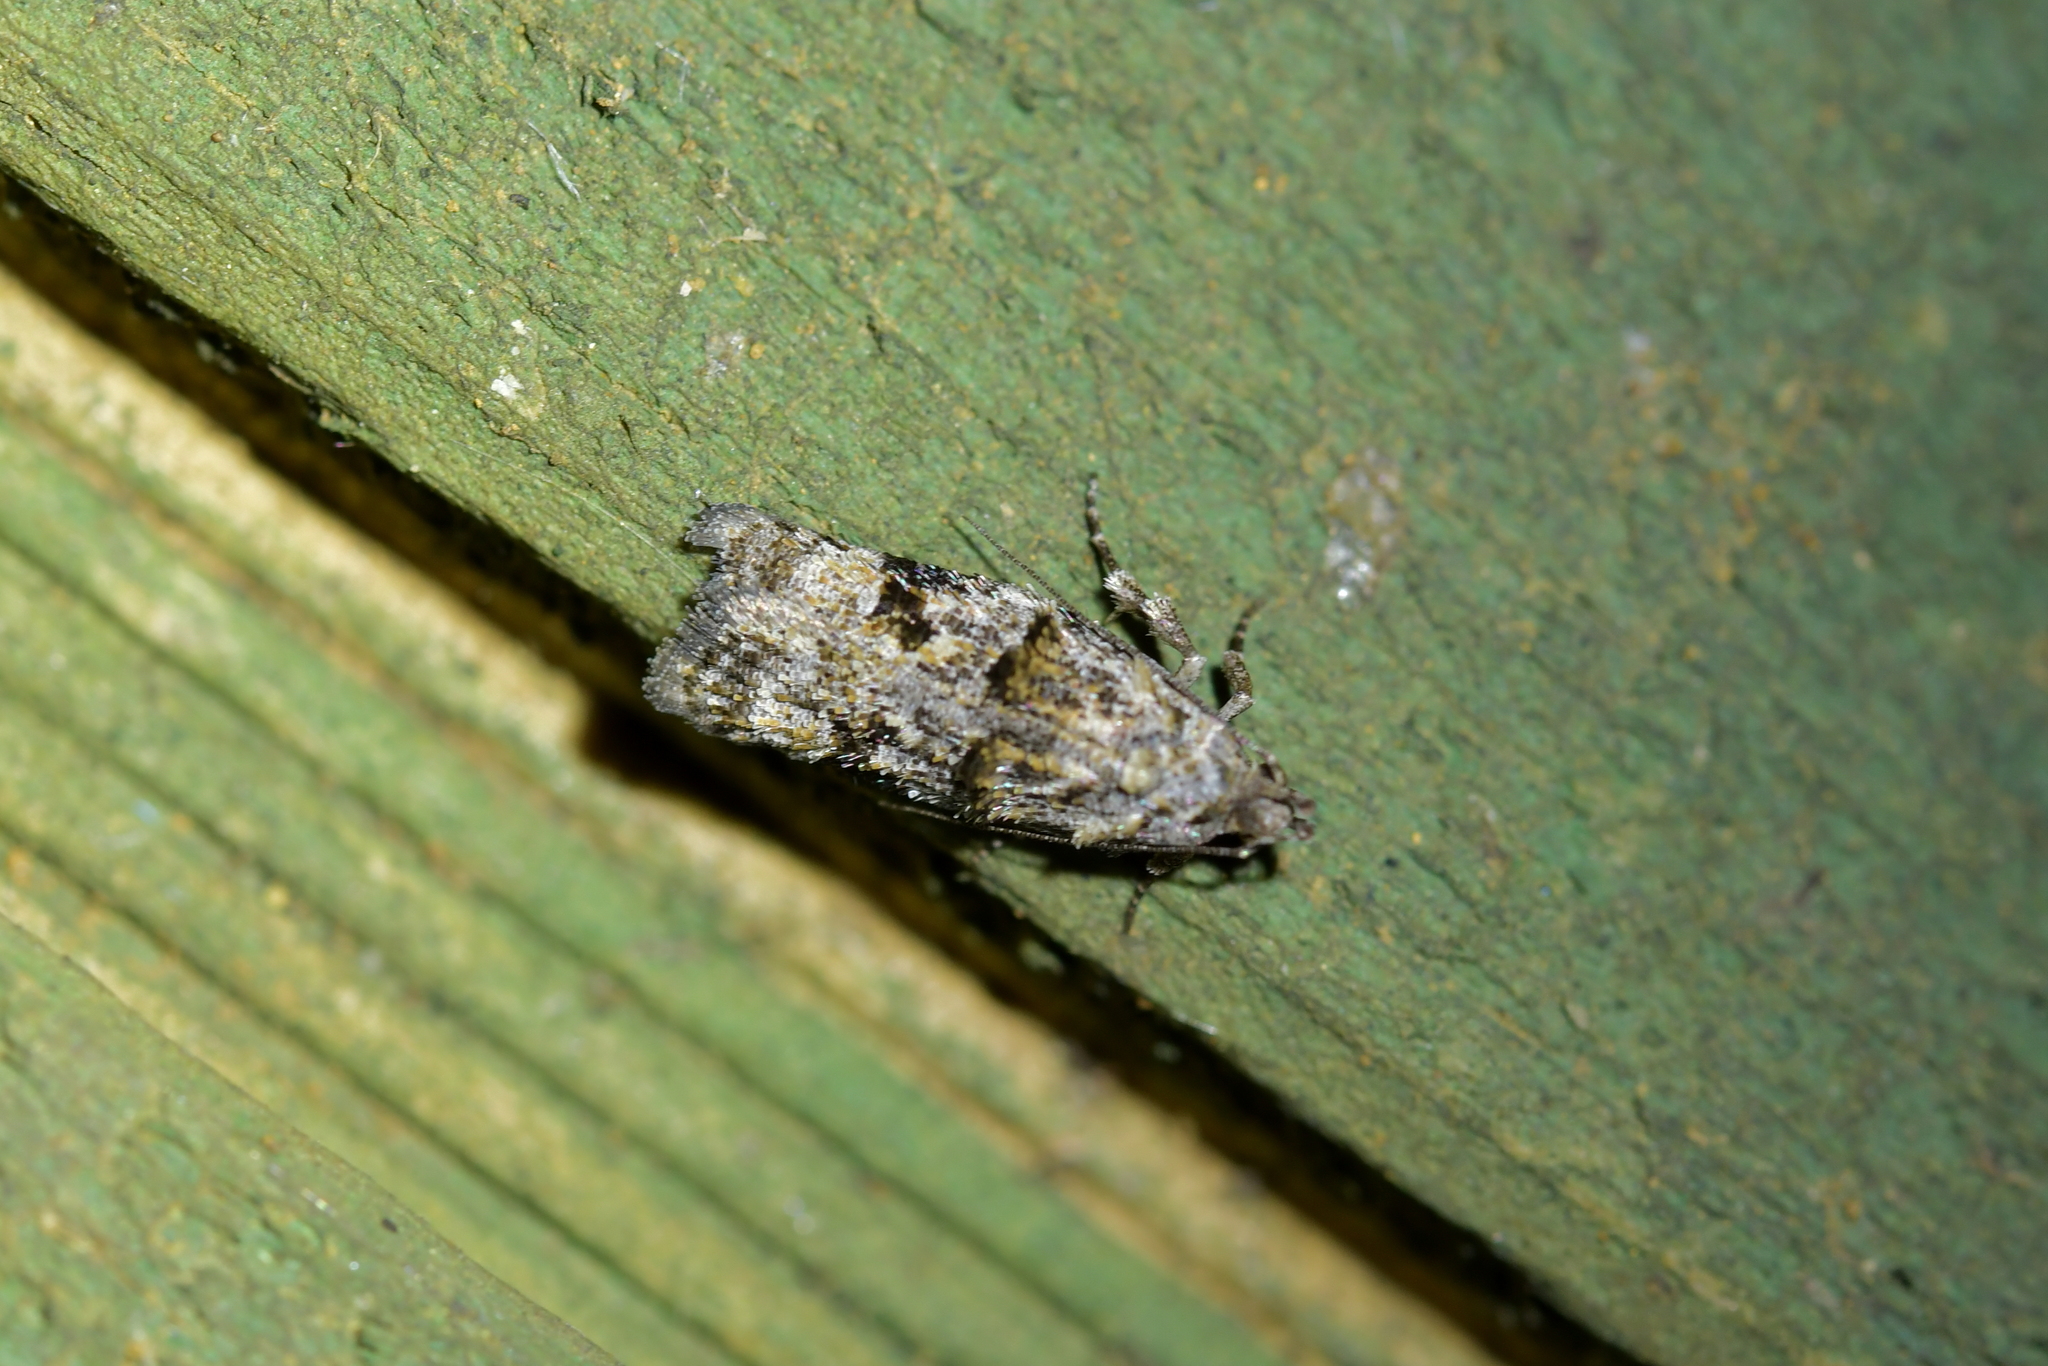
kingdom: Animalia
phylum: Arthropoda
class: Insecta
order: Lepidoptera
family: Oecophoridae
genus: Izatha
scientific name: Izatha minimira
